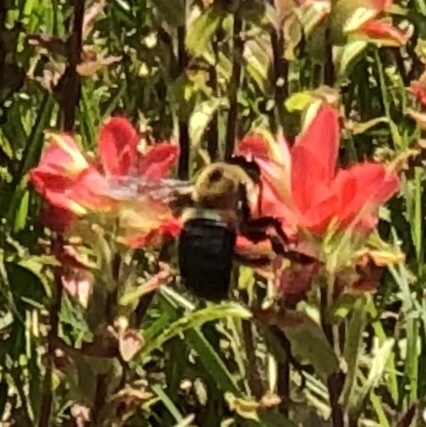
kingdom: Animalia
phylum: Arthropoda
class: Insecta
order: Hymenoptera
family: Apidae
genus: Xylocopa
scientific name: Xylocopa virginica
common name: Carpenter bee
